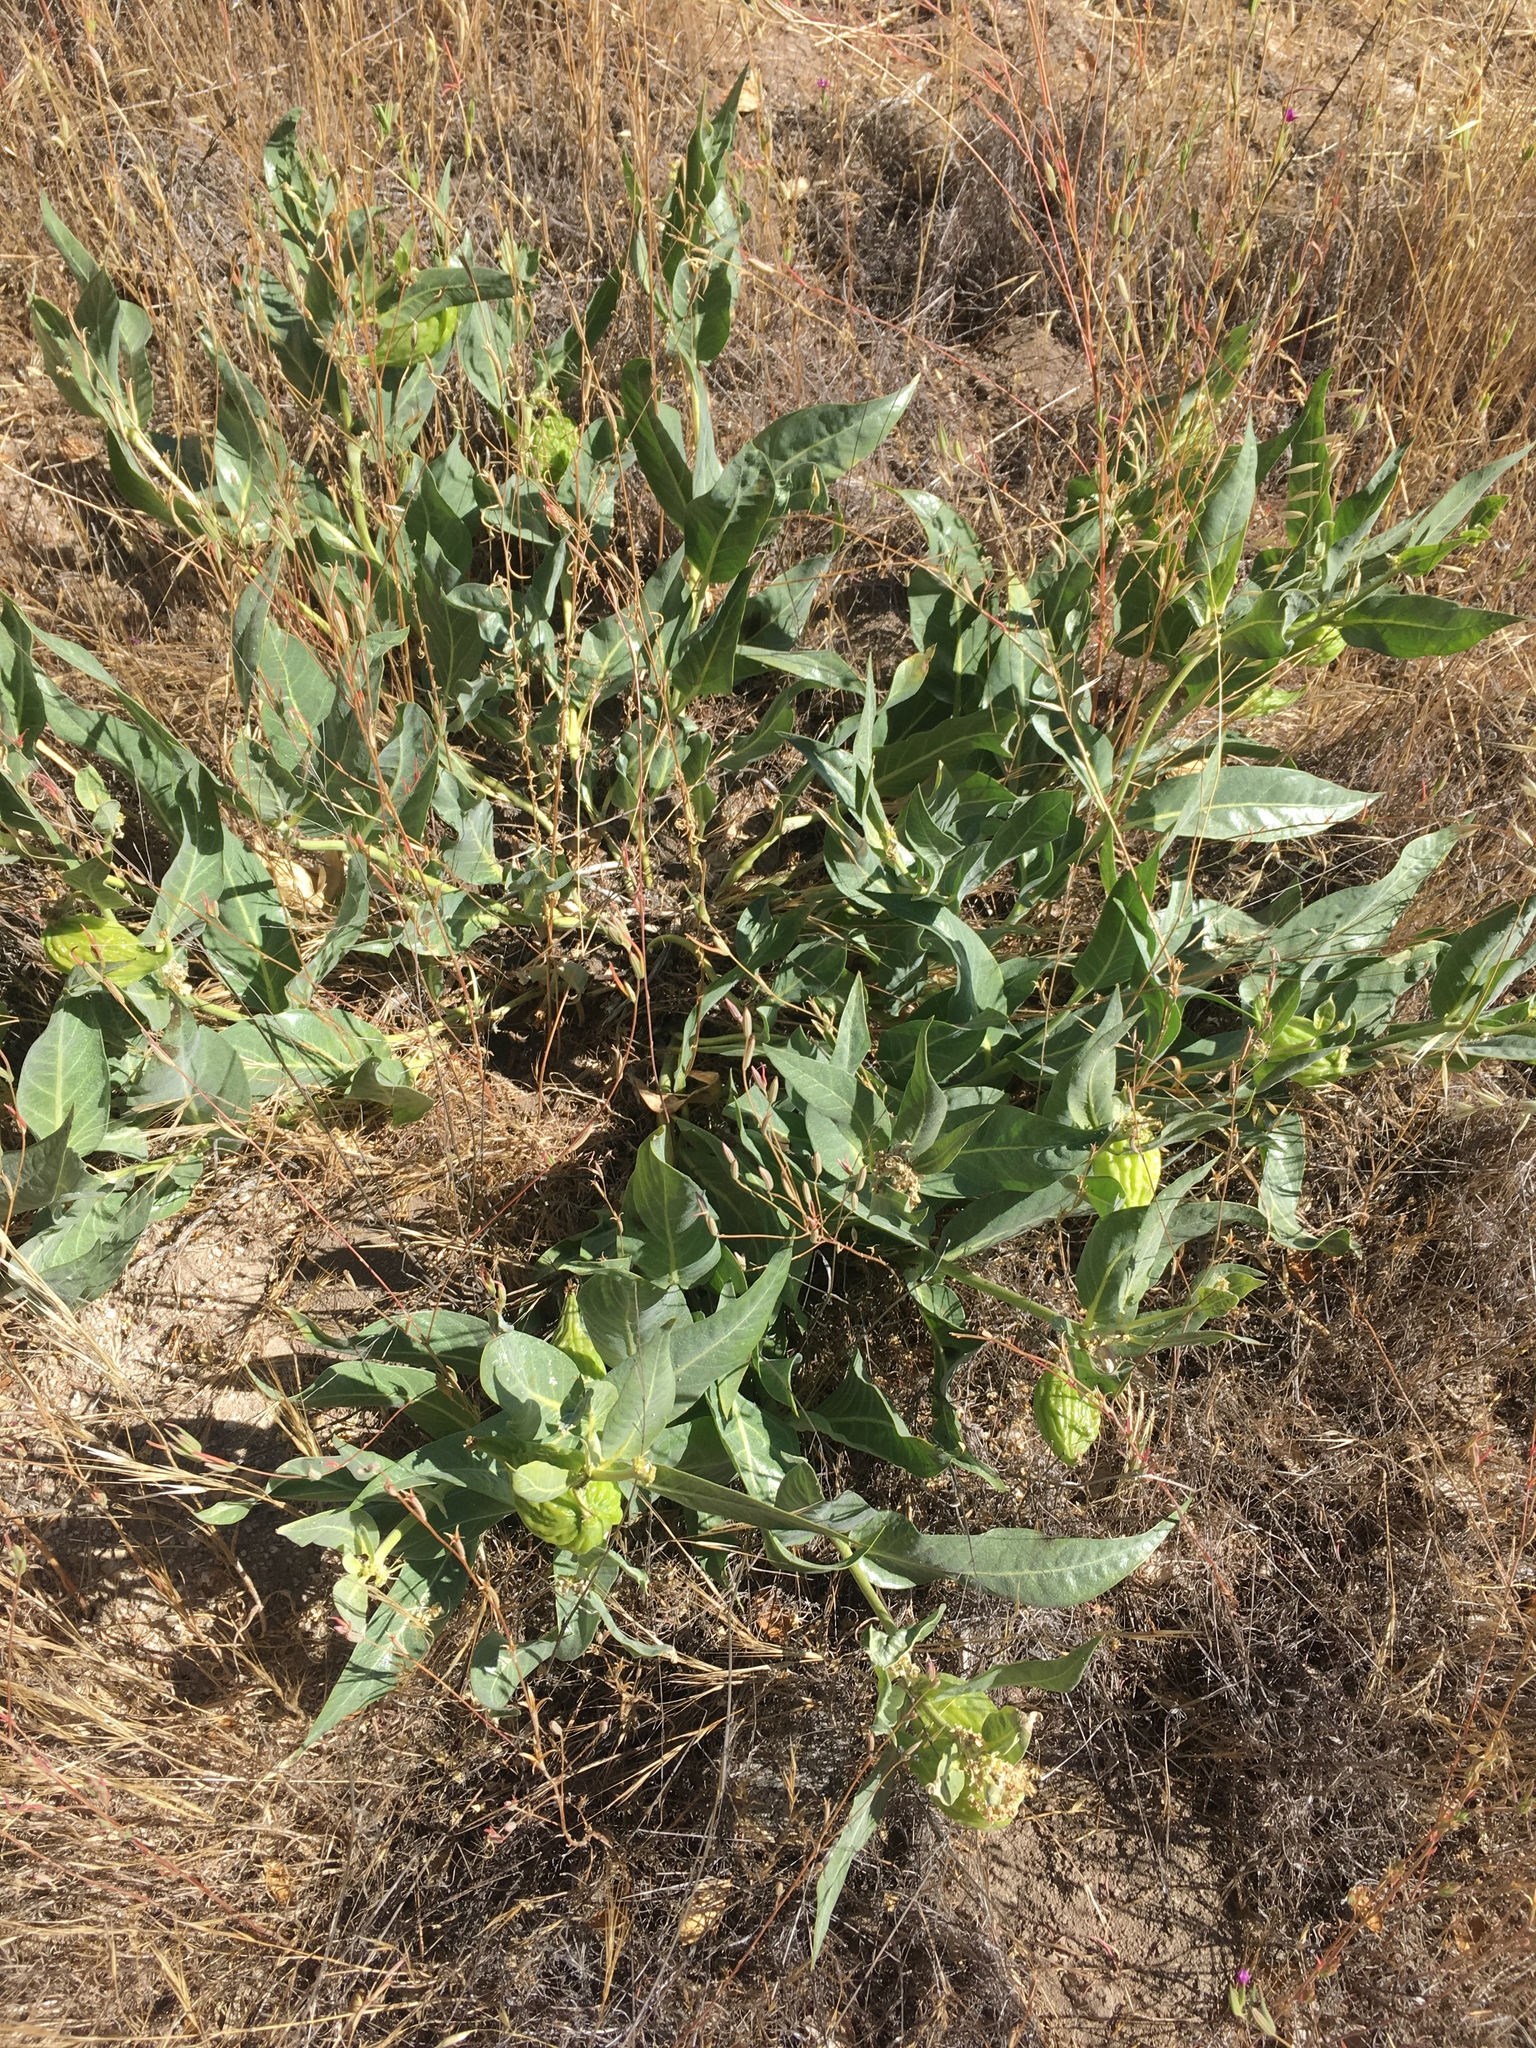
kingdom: Plantae
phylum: Tracheophyta
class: Magnoliopsida
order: Gentianales
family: Apocynaceae
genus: Asclepias
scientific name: Asclepias vestita
